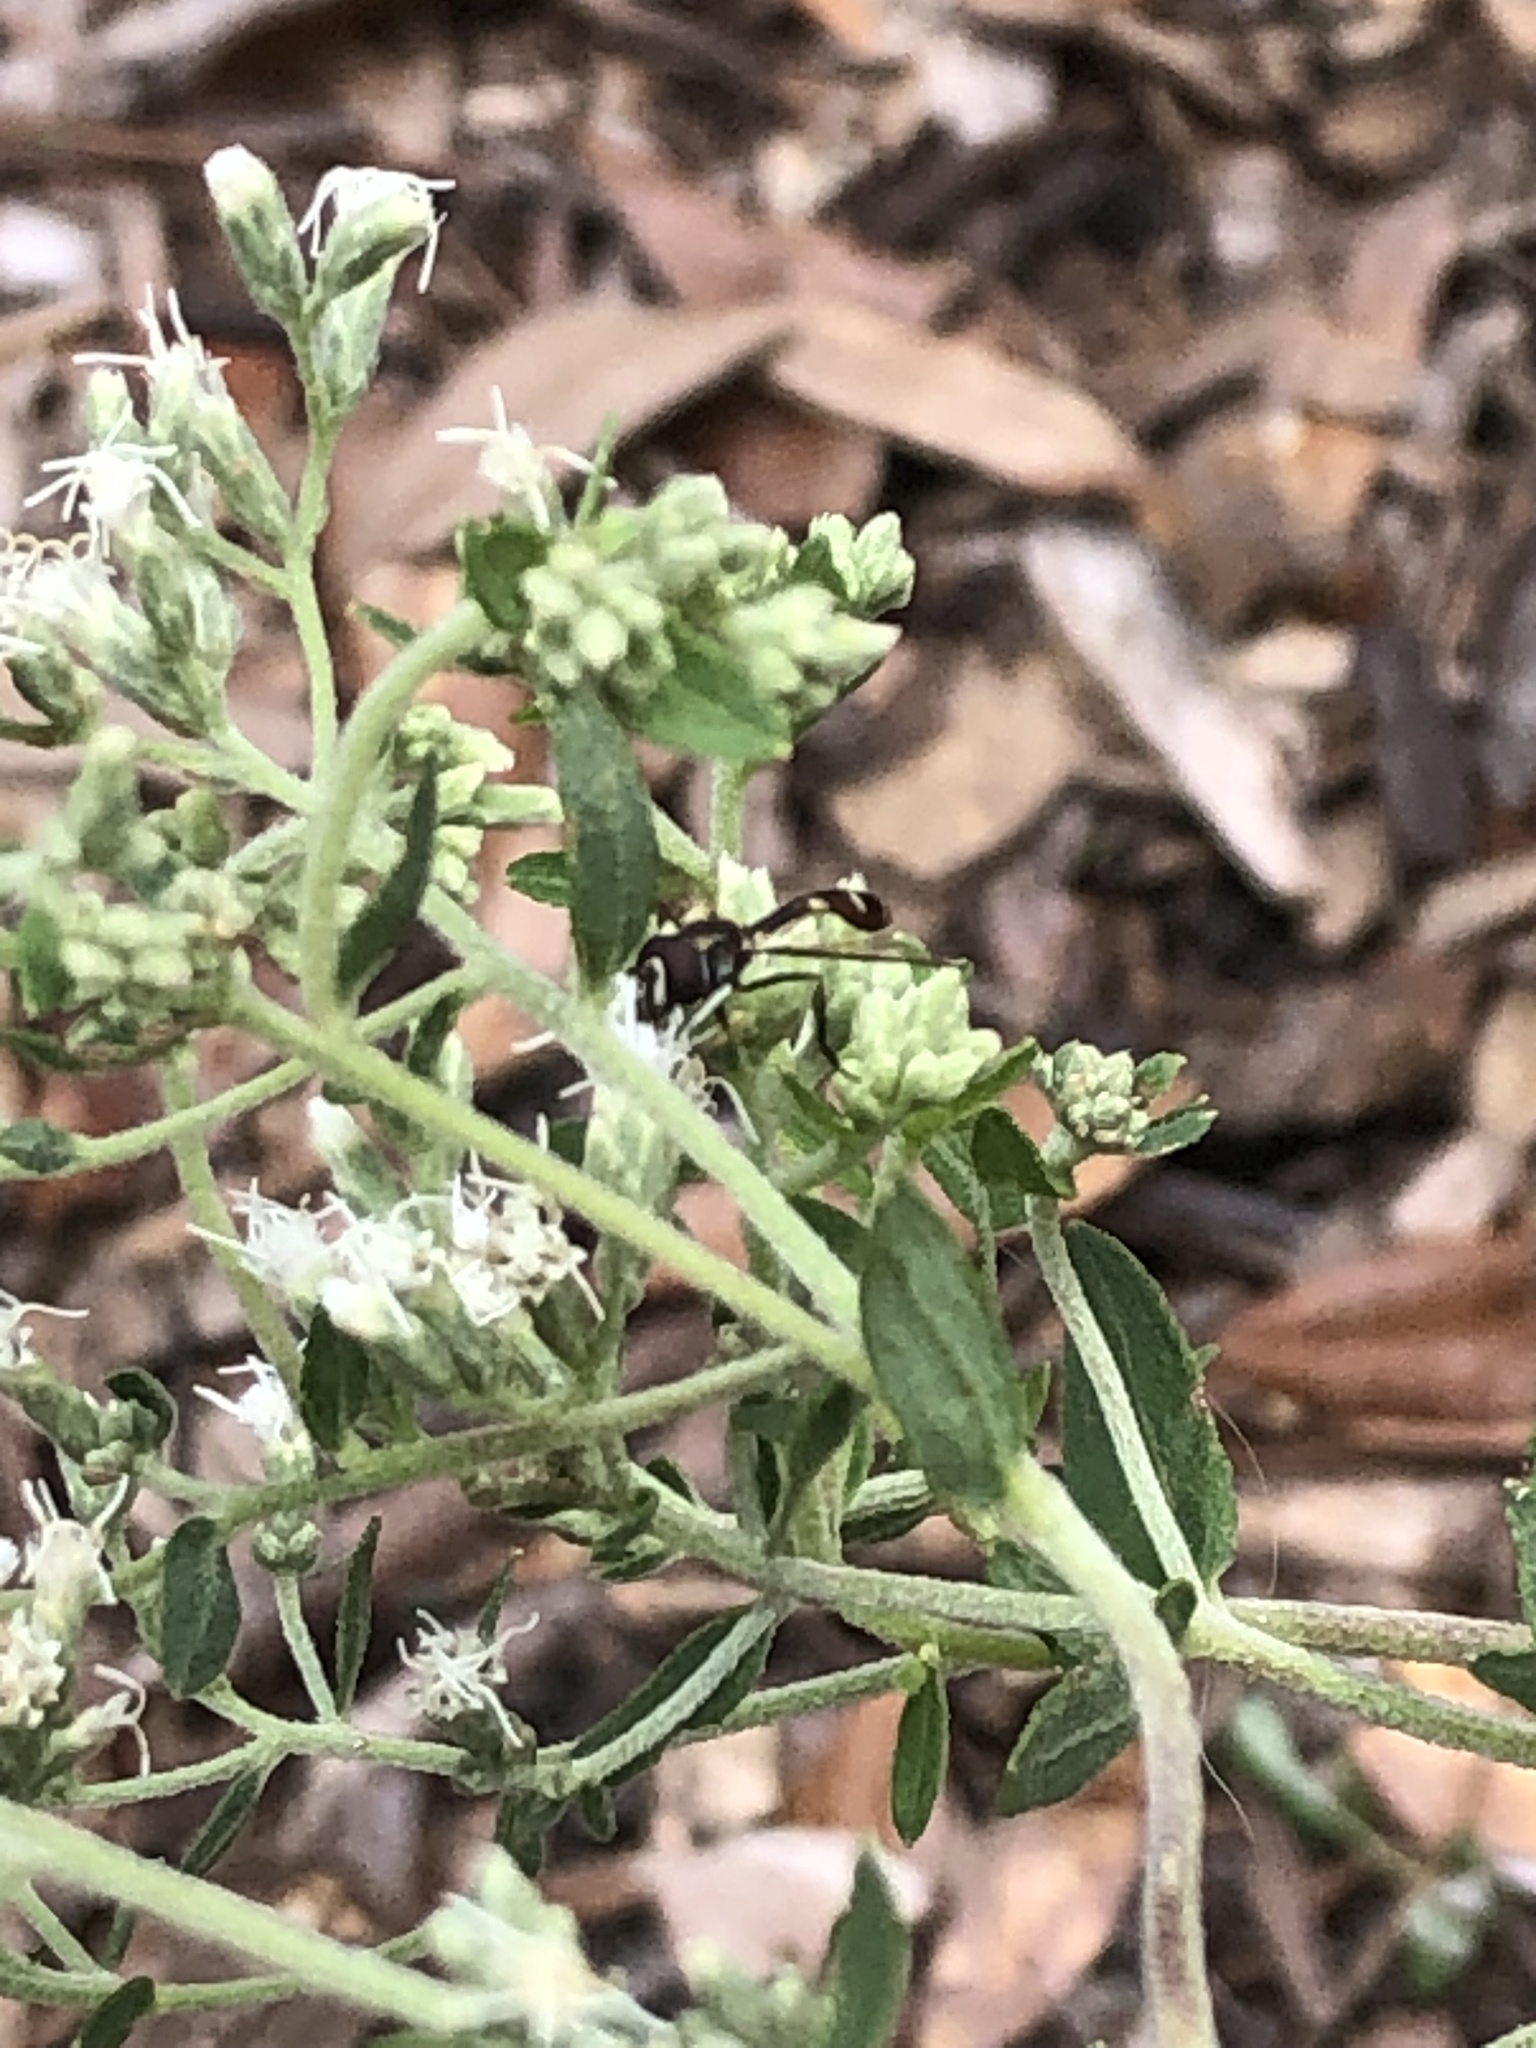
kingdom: Animalia
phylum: Arthropoda
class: Insecta
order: Diptera
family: Syrphidae
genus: Dioprosopa
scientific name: Dioprosopa clavatus
